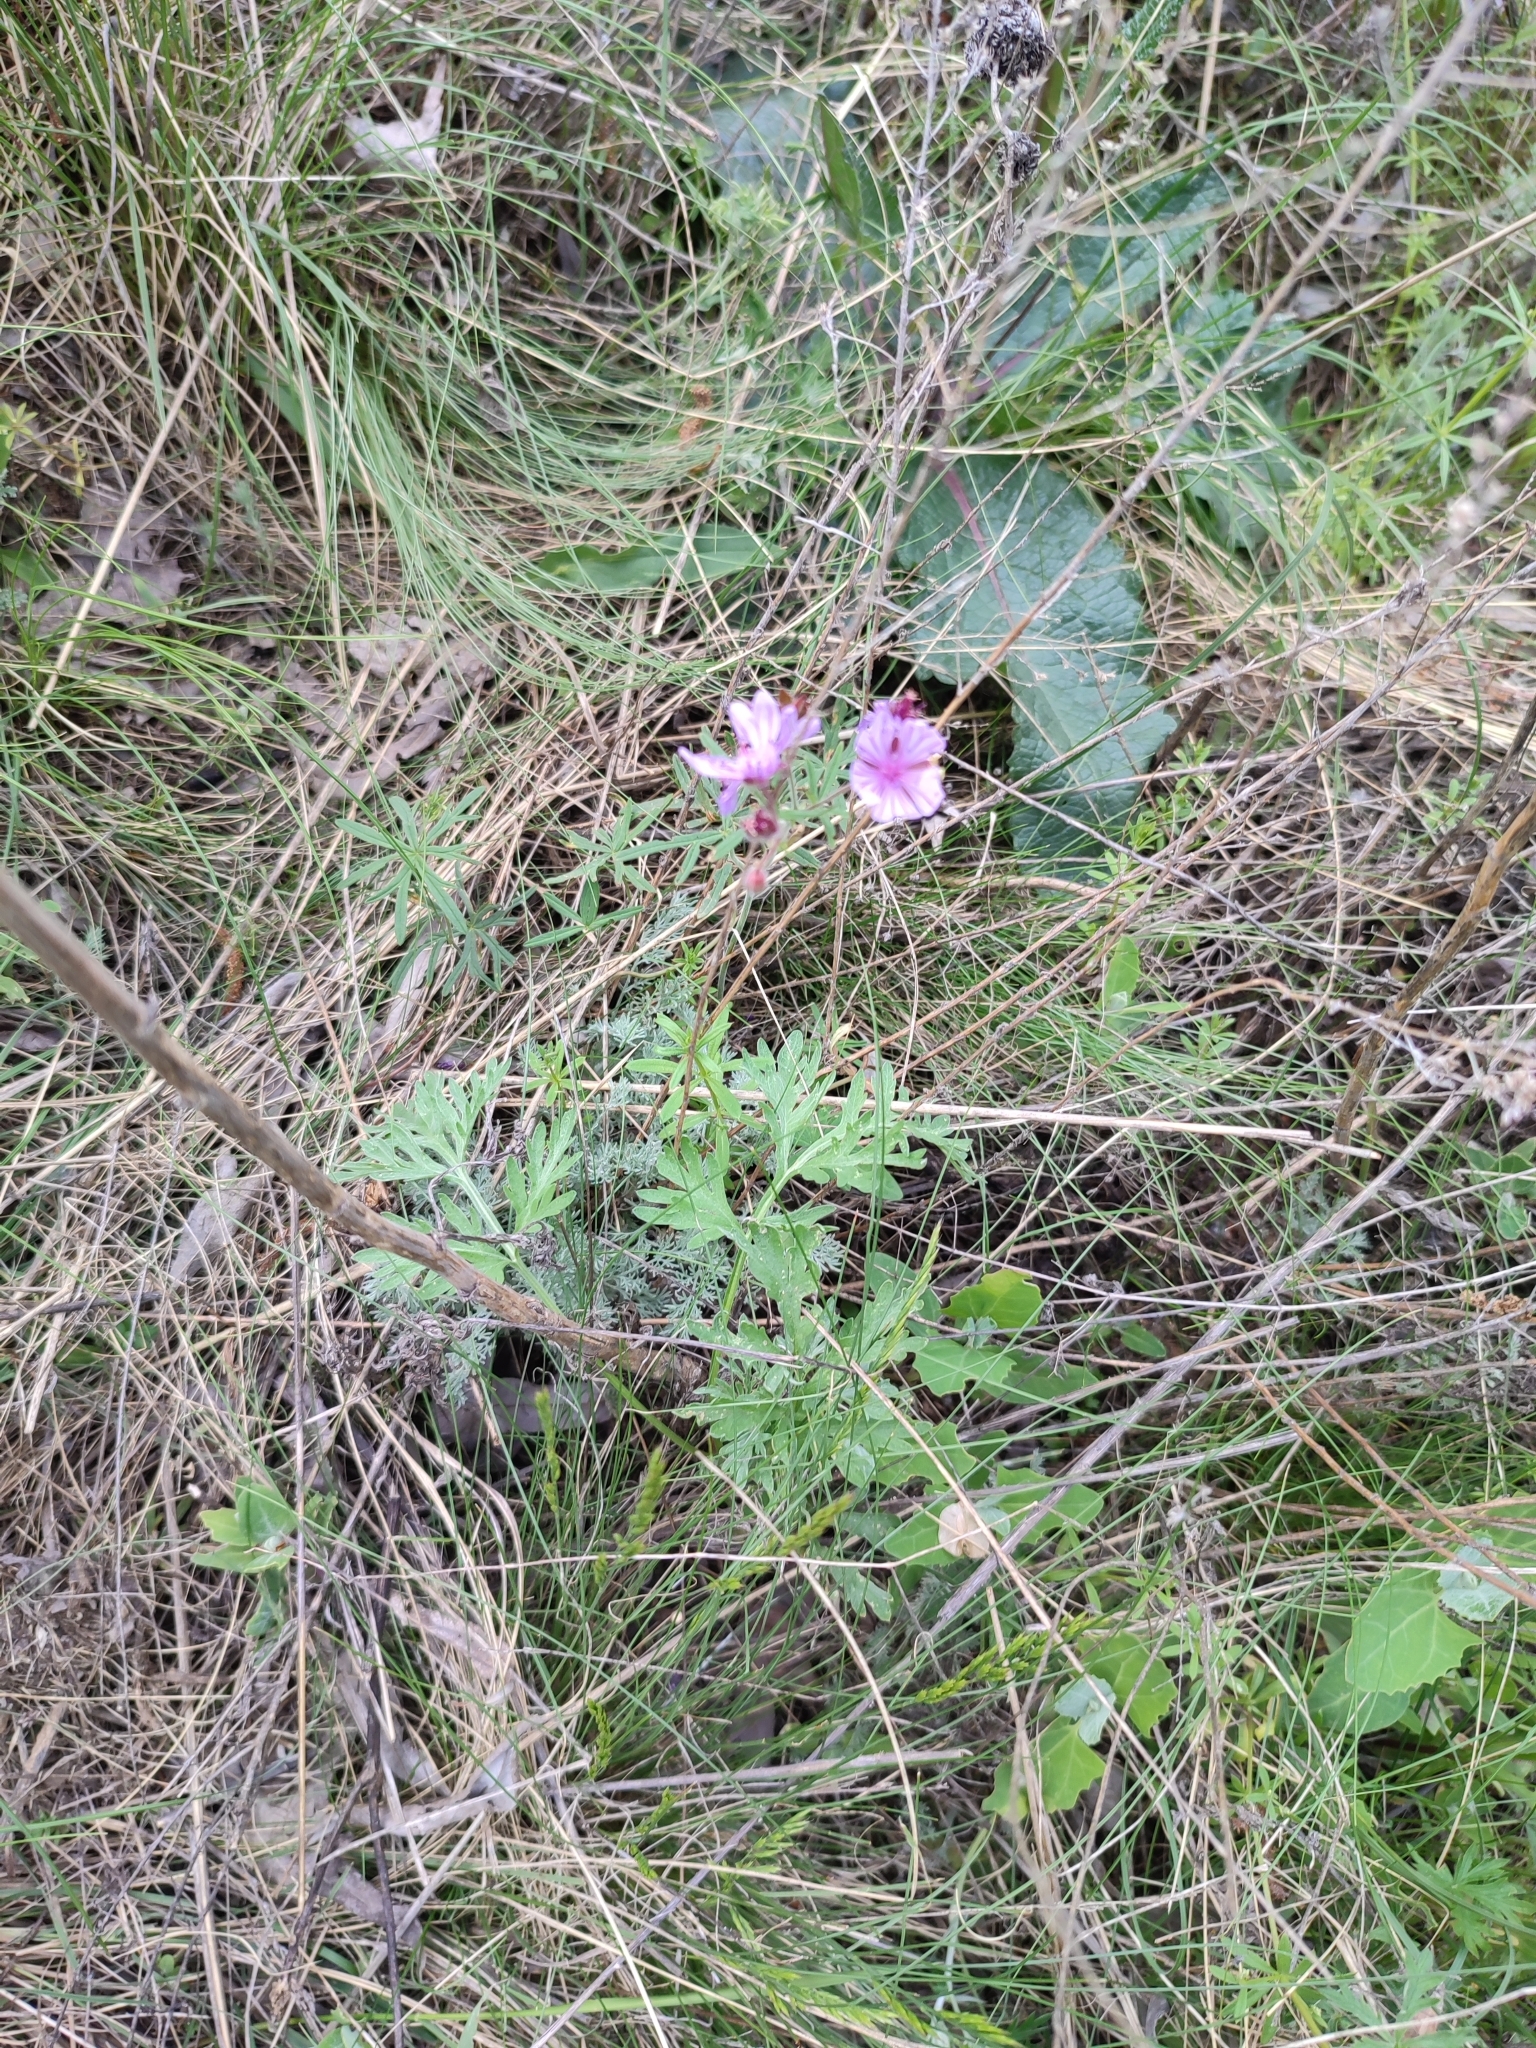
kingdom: Plantae
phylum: Tracheophyta
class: Magnoliopsida
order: Geraniales
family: Geraniaceae
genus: Geranium
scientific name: Geranium linearilobum
